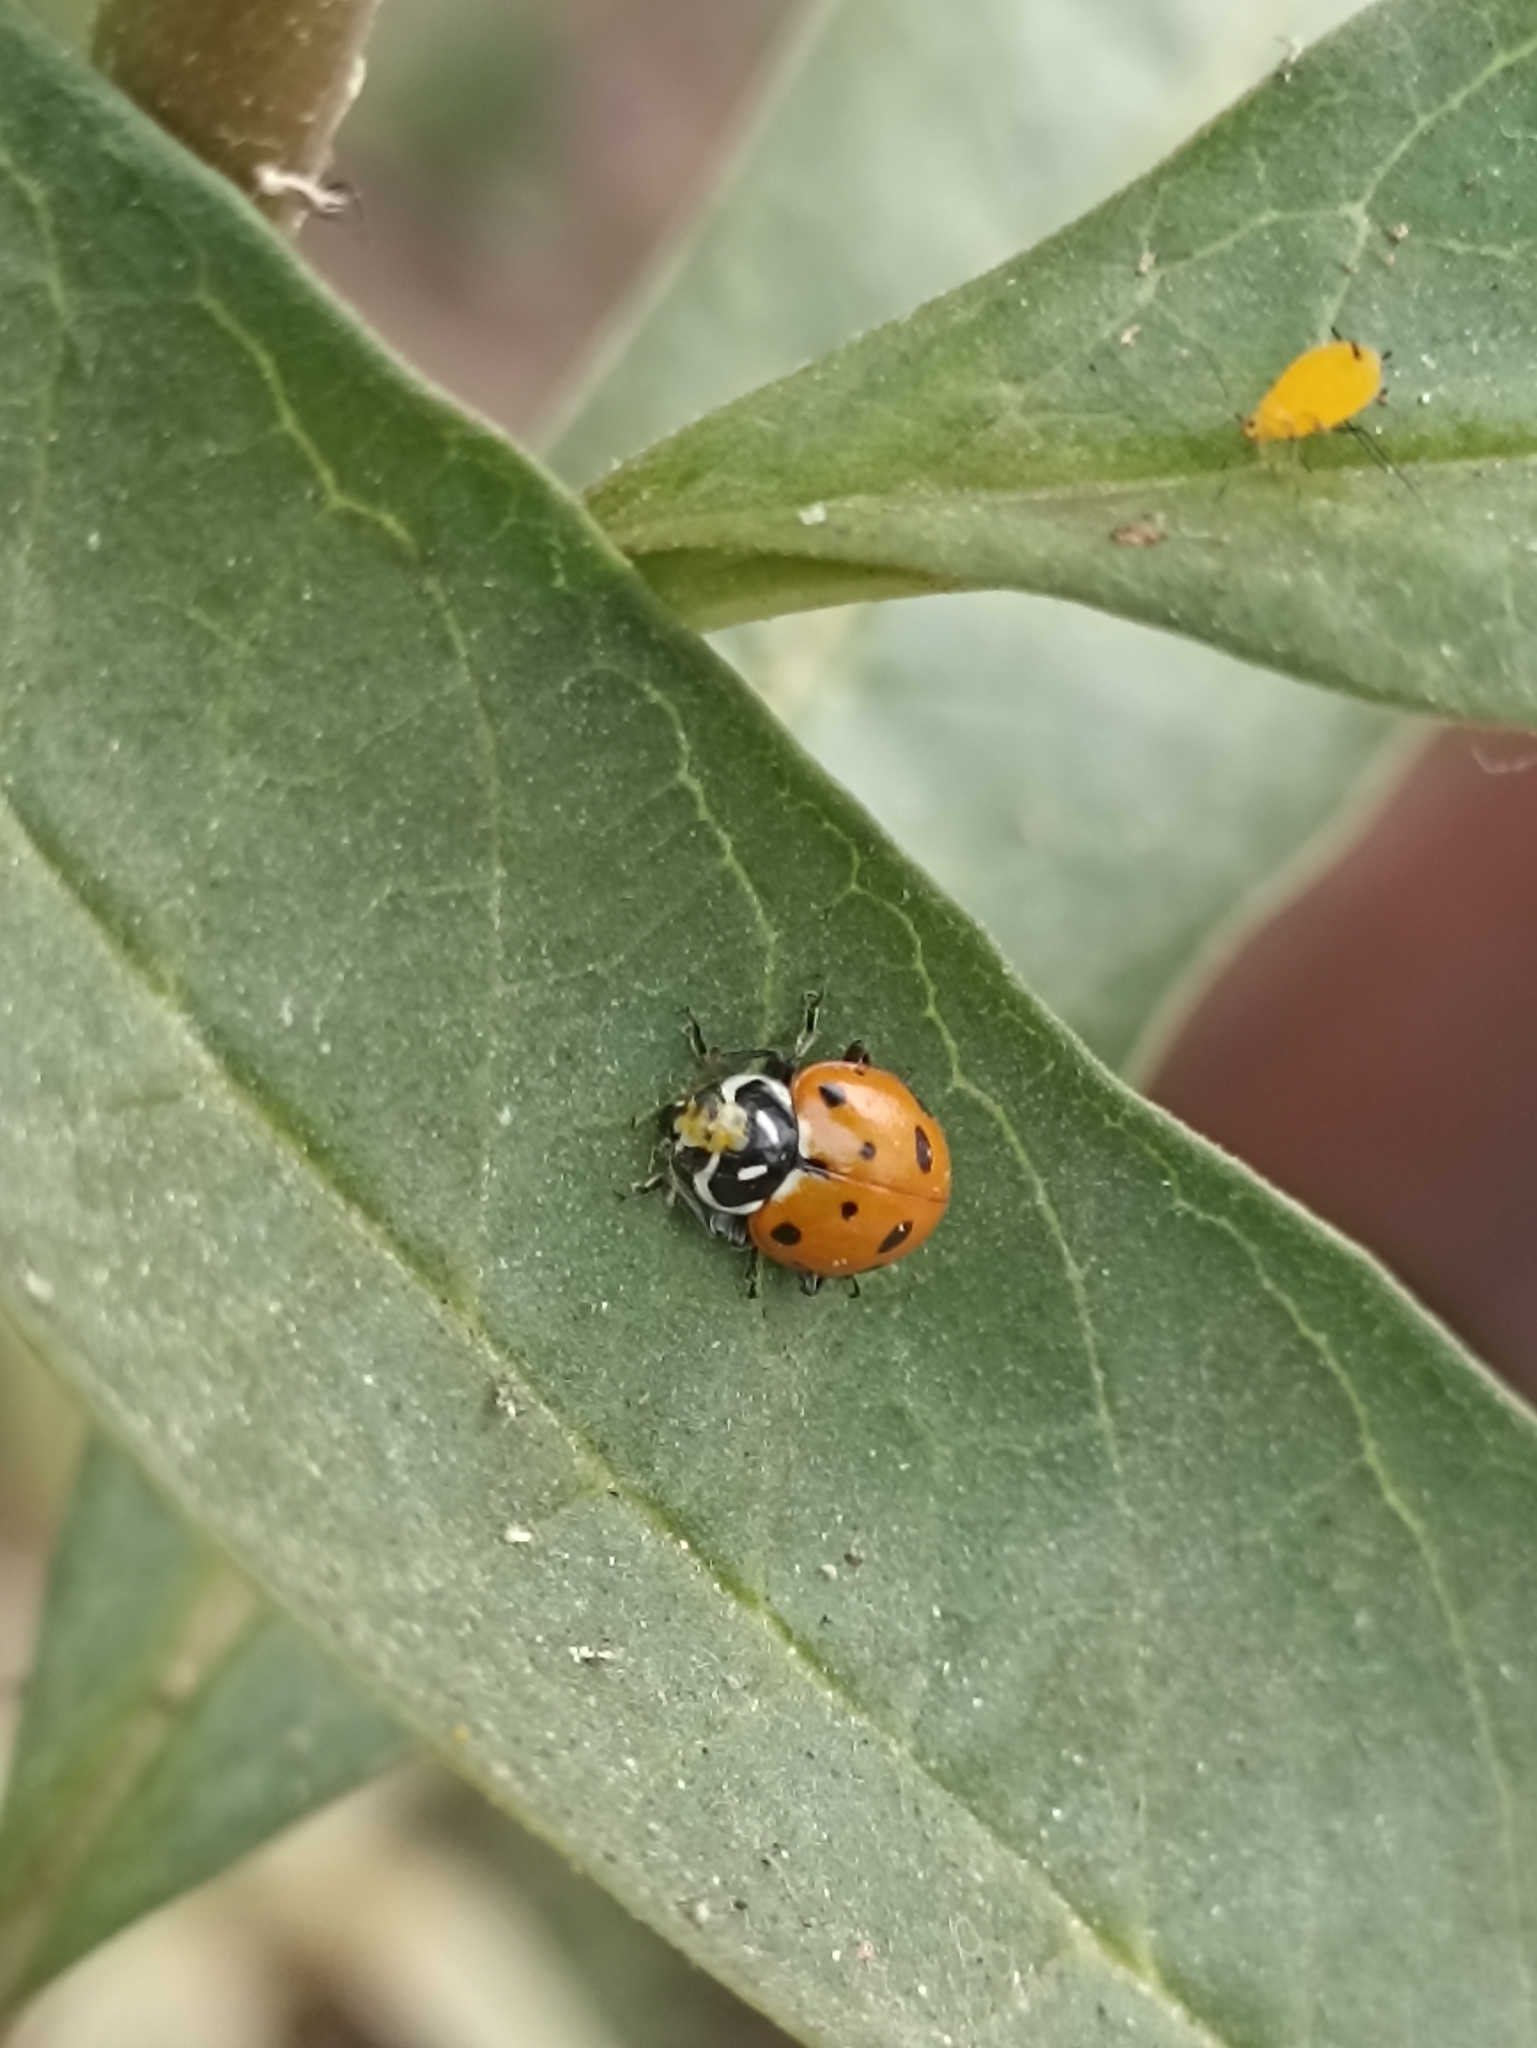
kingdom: Animalia
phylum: Arthropoda
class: Insecta
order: Coleoptera
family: Coccinellidae
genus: Hippodamia
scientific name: Hippodamia convergens
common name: Convergent lady beetle
